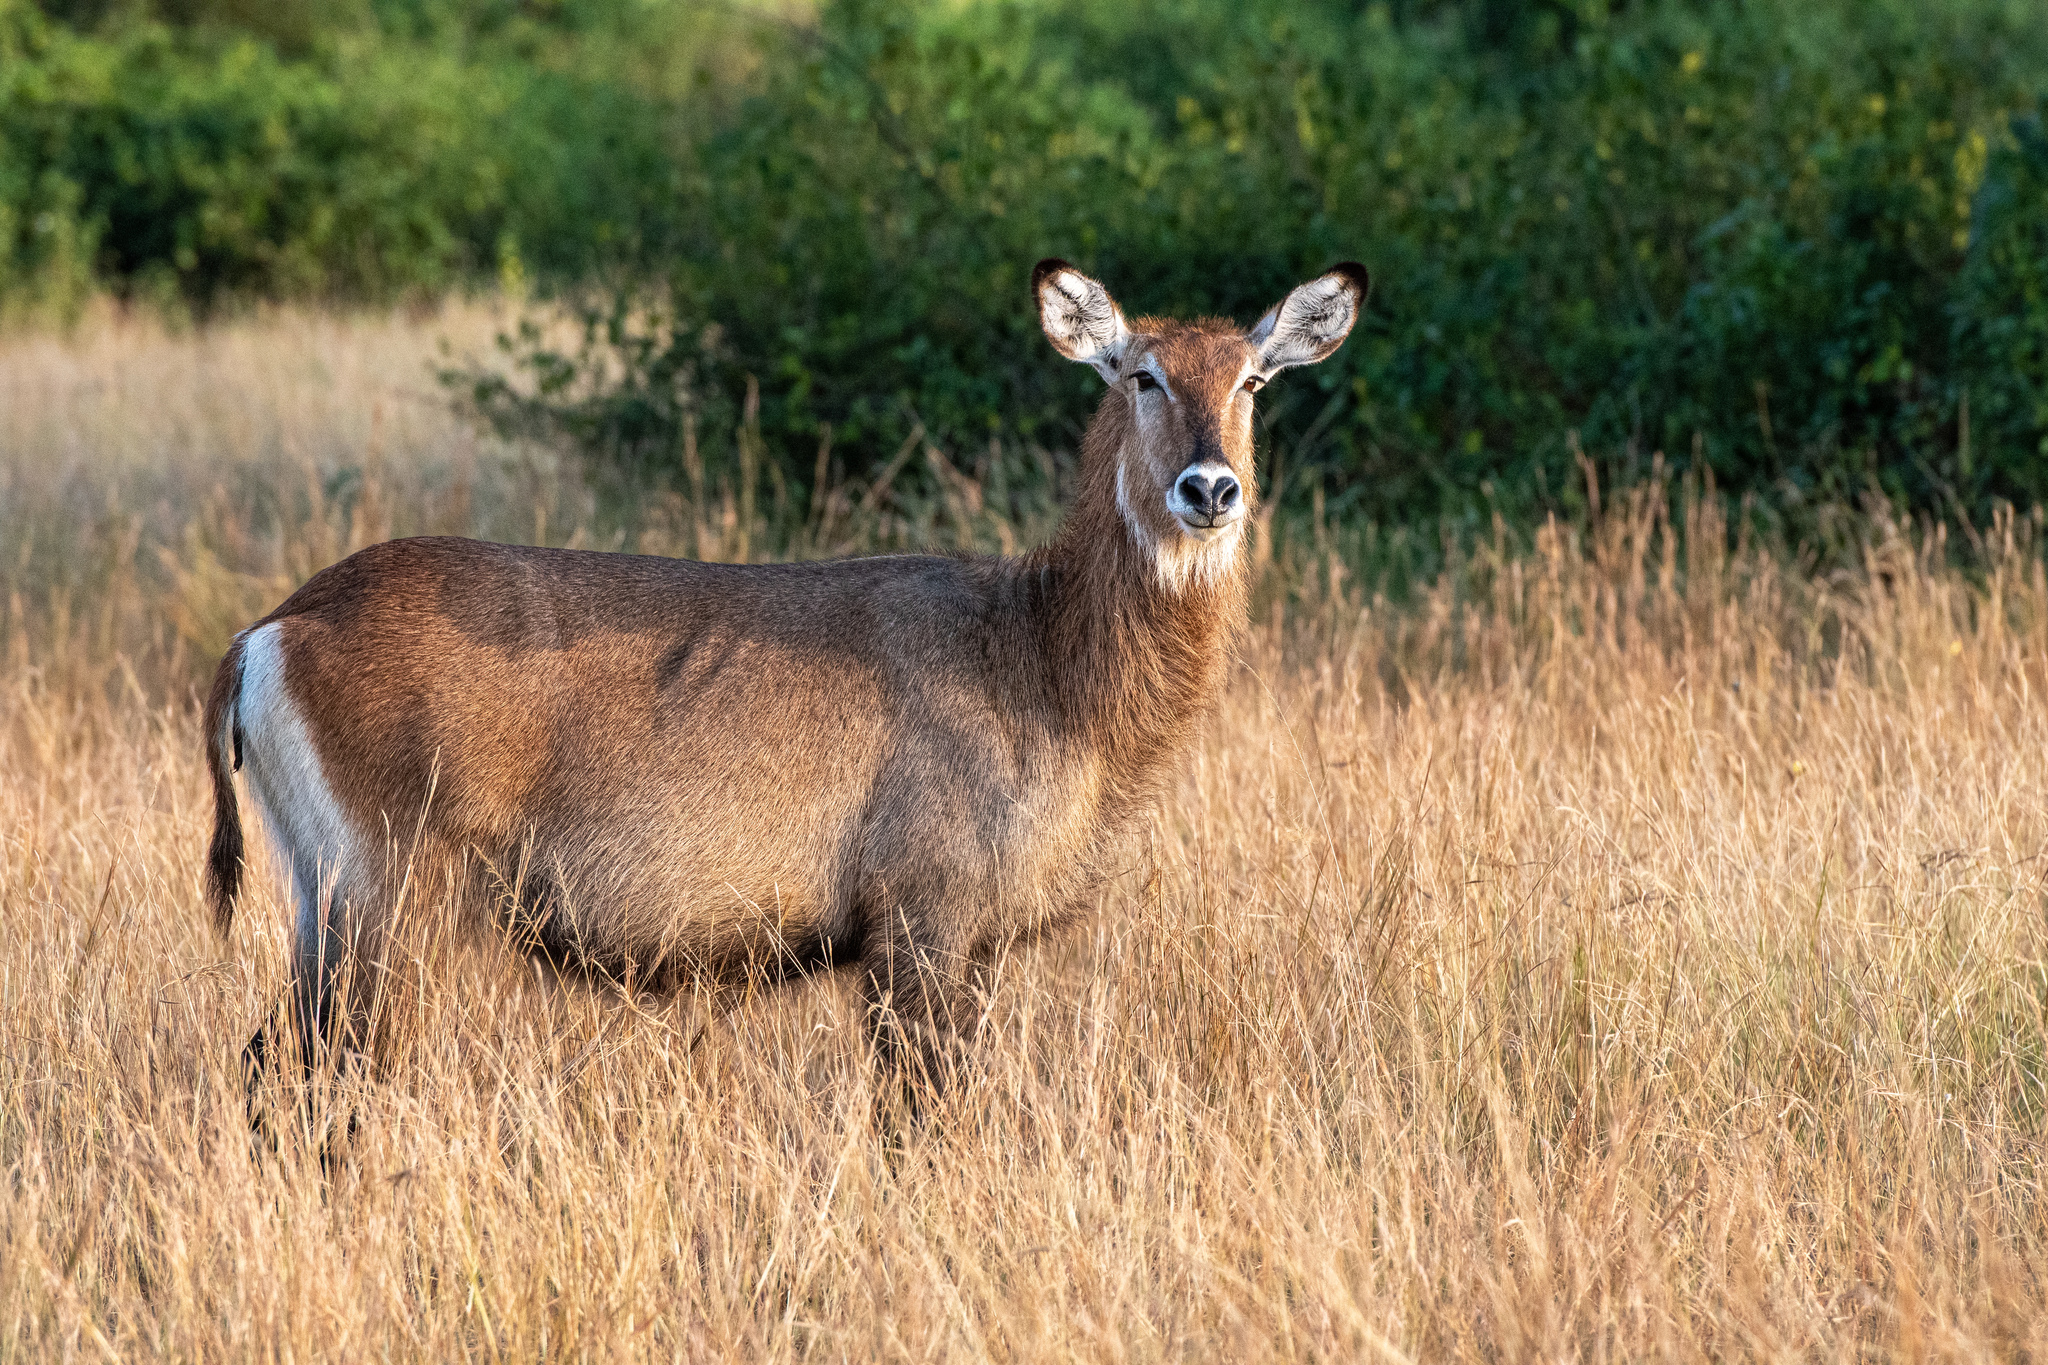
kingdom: Animalia
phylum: Chordata
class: Mammalia
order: Artiodactyla
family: Bovidae
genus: Kobus
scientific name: Kobus ellipsiprymnus
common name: Waterbuck
